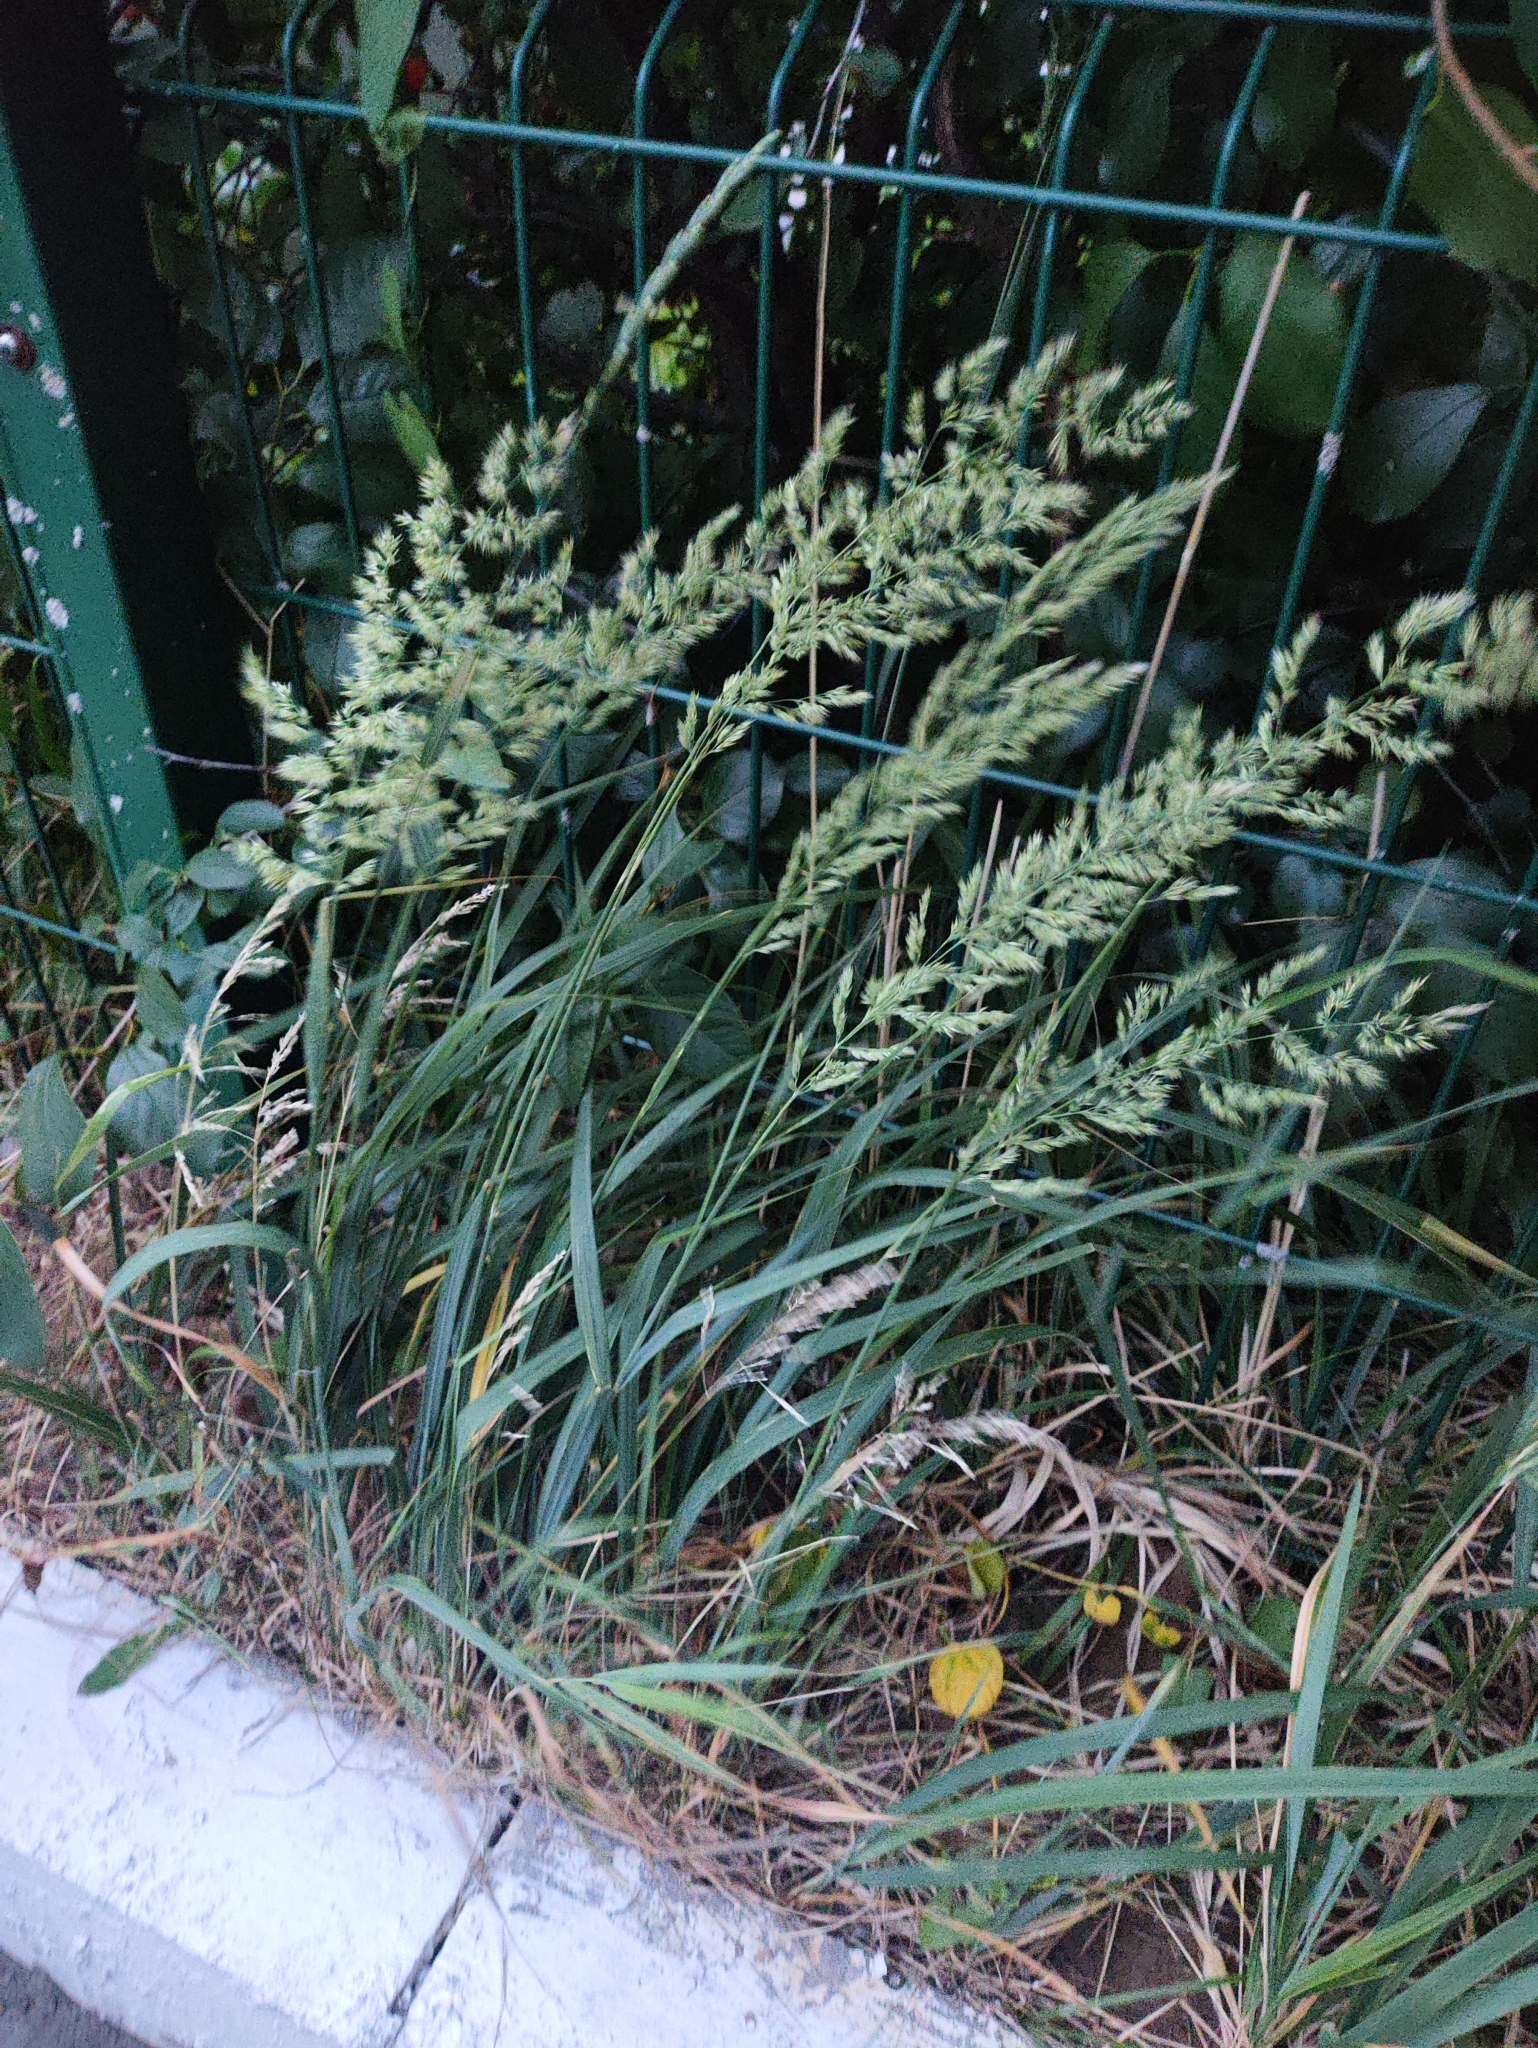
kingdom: Plantae
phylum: Tracheophyta
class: Liliopsida
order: Poales
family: Poaceae
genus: Calamagrostis
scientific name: Calamagrostis epigejos
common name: Wood small-reed
